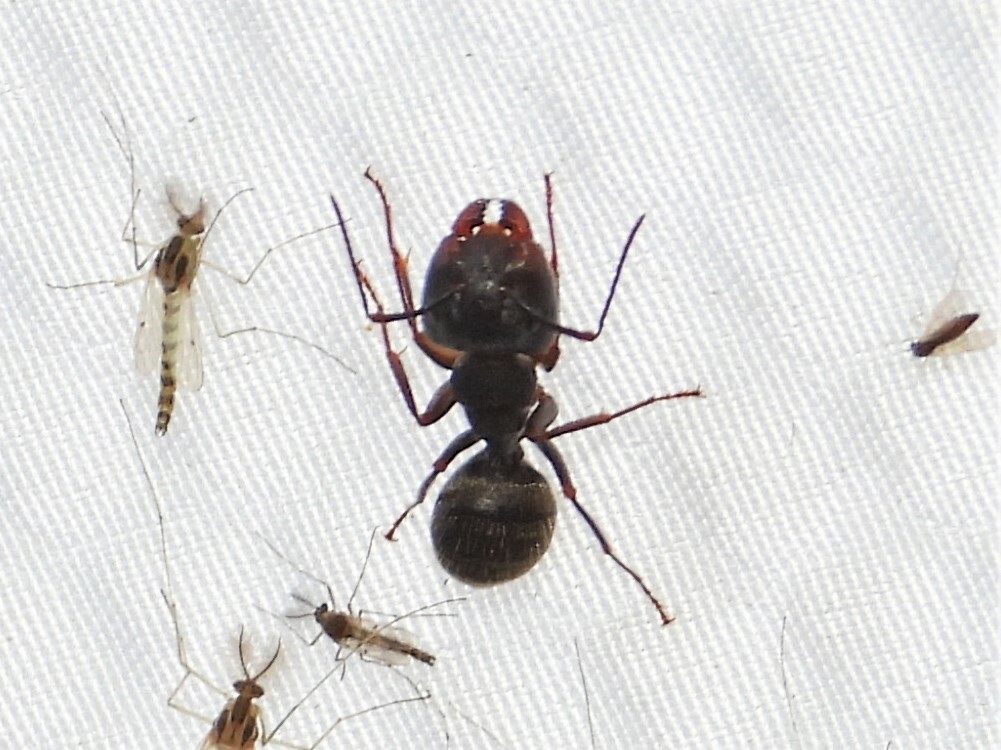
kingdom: Animalia
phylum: Arthropoda
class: Insecta
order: Hymenoptera
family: Formicidae
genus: Camponotus
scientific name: Camponotus pennsylvanicus
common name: Black carpenter ant
